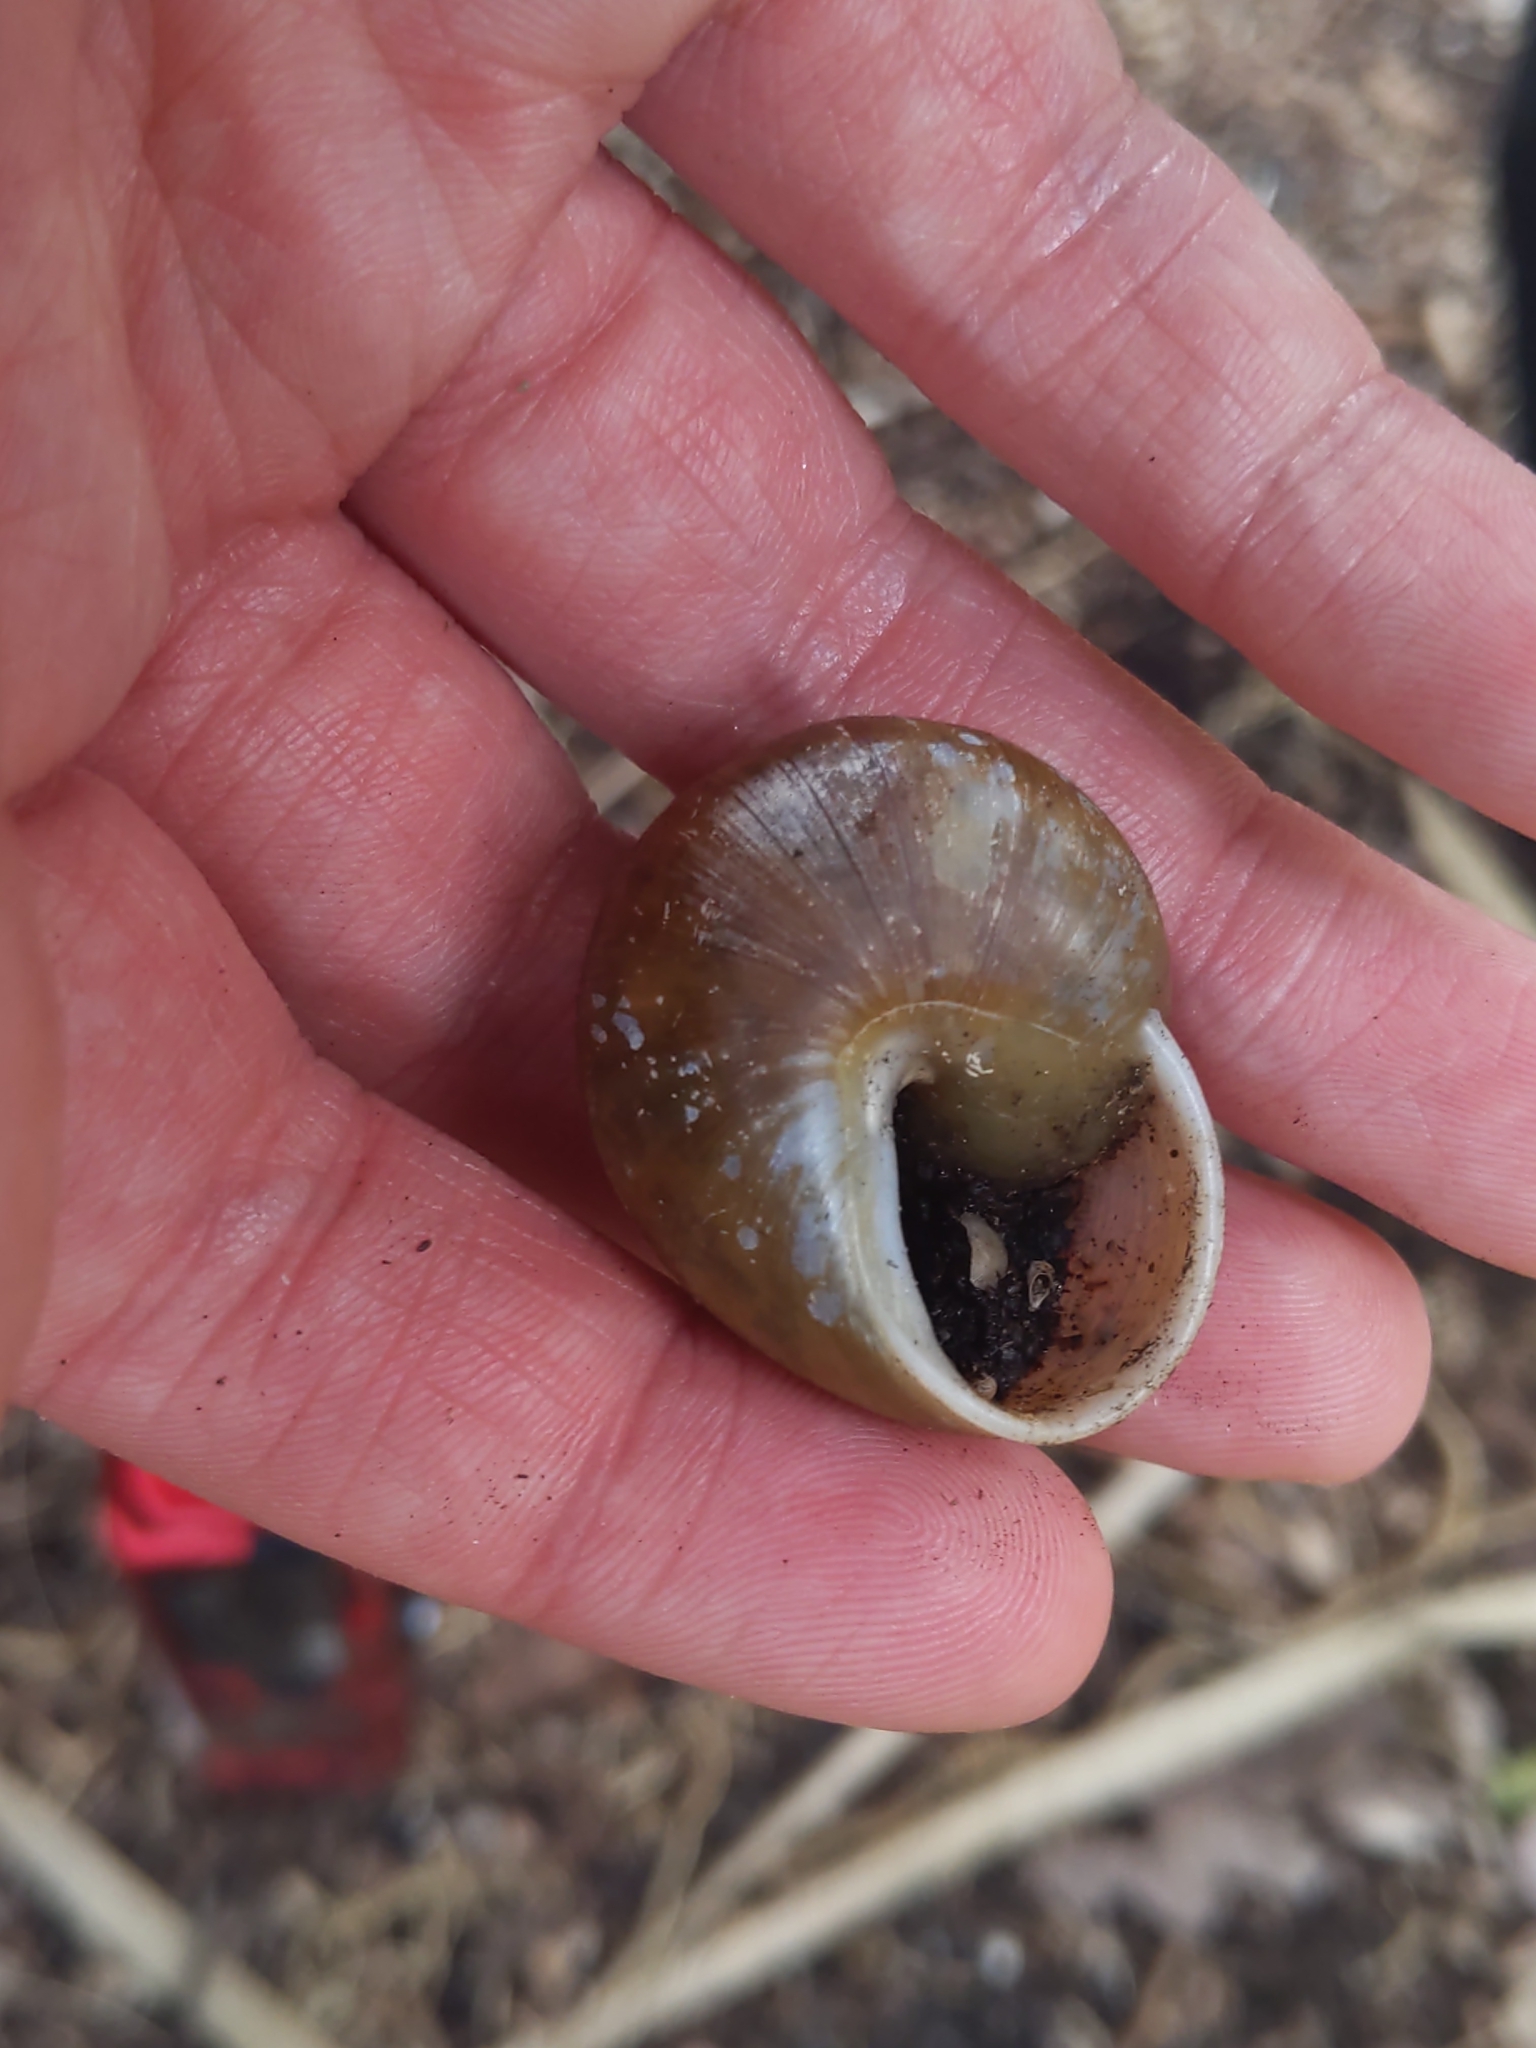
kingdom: Animalia
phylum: Mollusca
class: Gastropoda
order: Stylommatophora
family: Zachrysiidae
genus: Zachrysia
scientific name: Zachrysia provisoria
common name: Garden zachrysia
